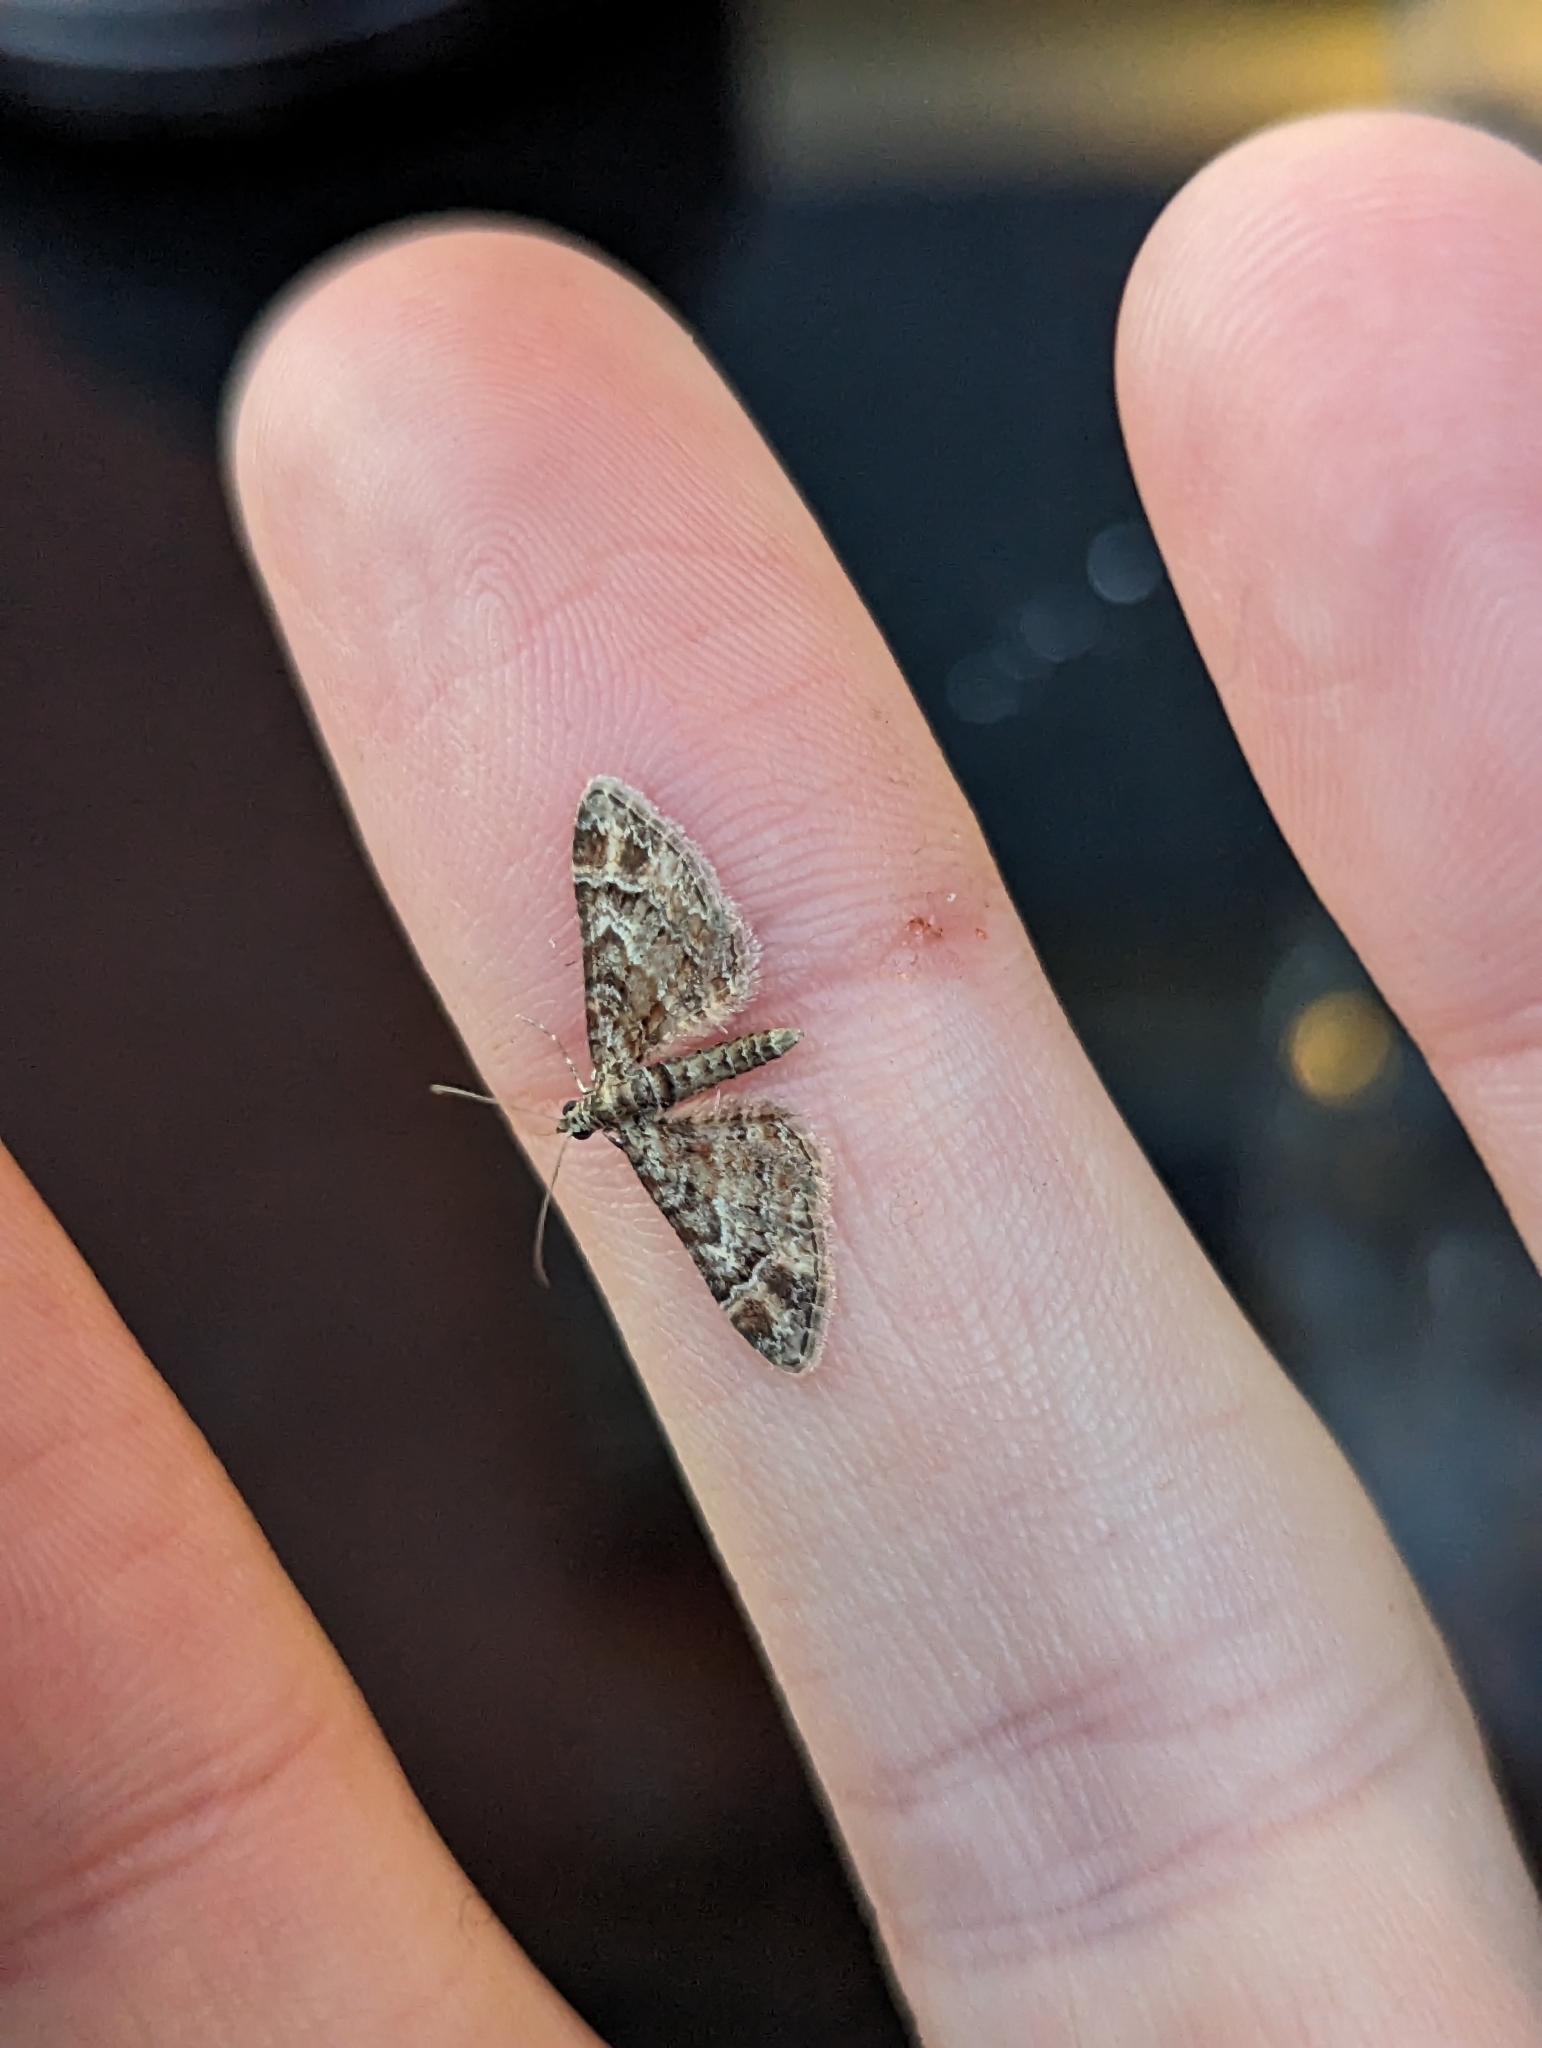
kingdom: Animalia
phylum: Arthropoda
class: Insecta
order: Lepidoptera
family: Geometridae
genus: Gymnoscelis
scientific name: Gymnoscelis rufifasciata
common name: Double-striped pug
